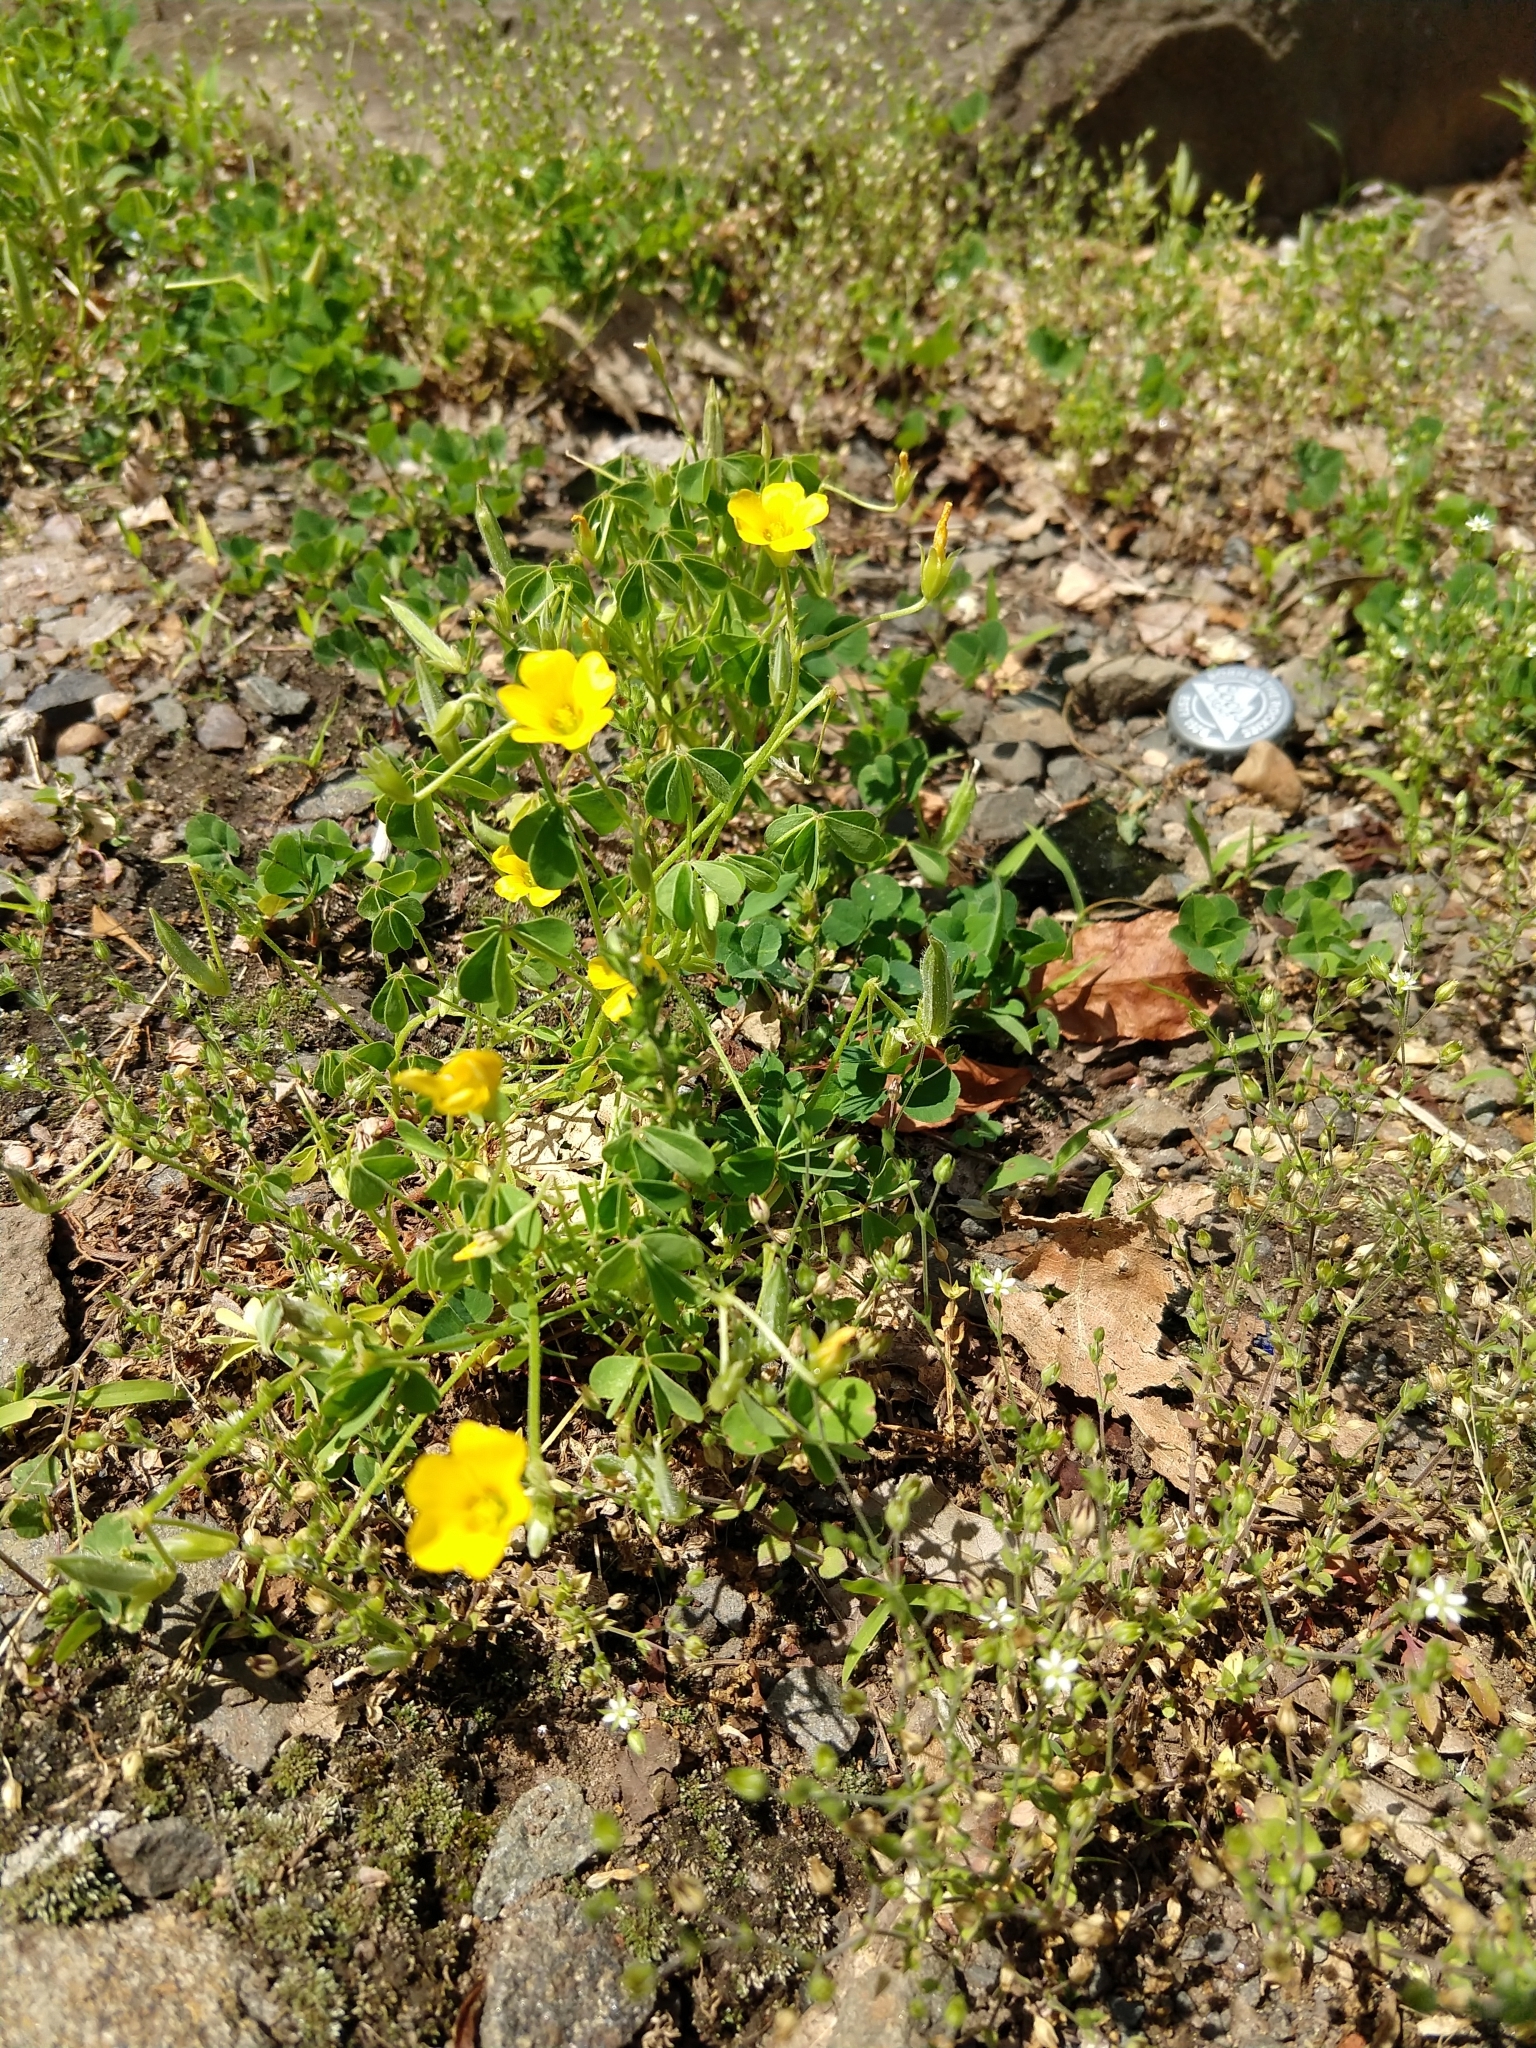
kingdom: Plantae
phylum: Tracheophyta
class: Magnoliopsida
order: Oxalidales
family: Oxalidaceae
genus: Oxalis
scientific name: Oxalis dillenii
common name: Sussex yellow-sorrel
